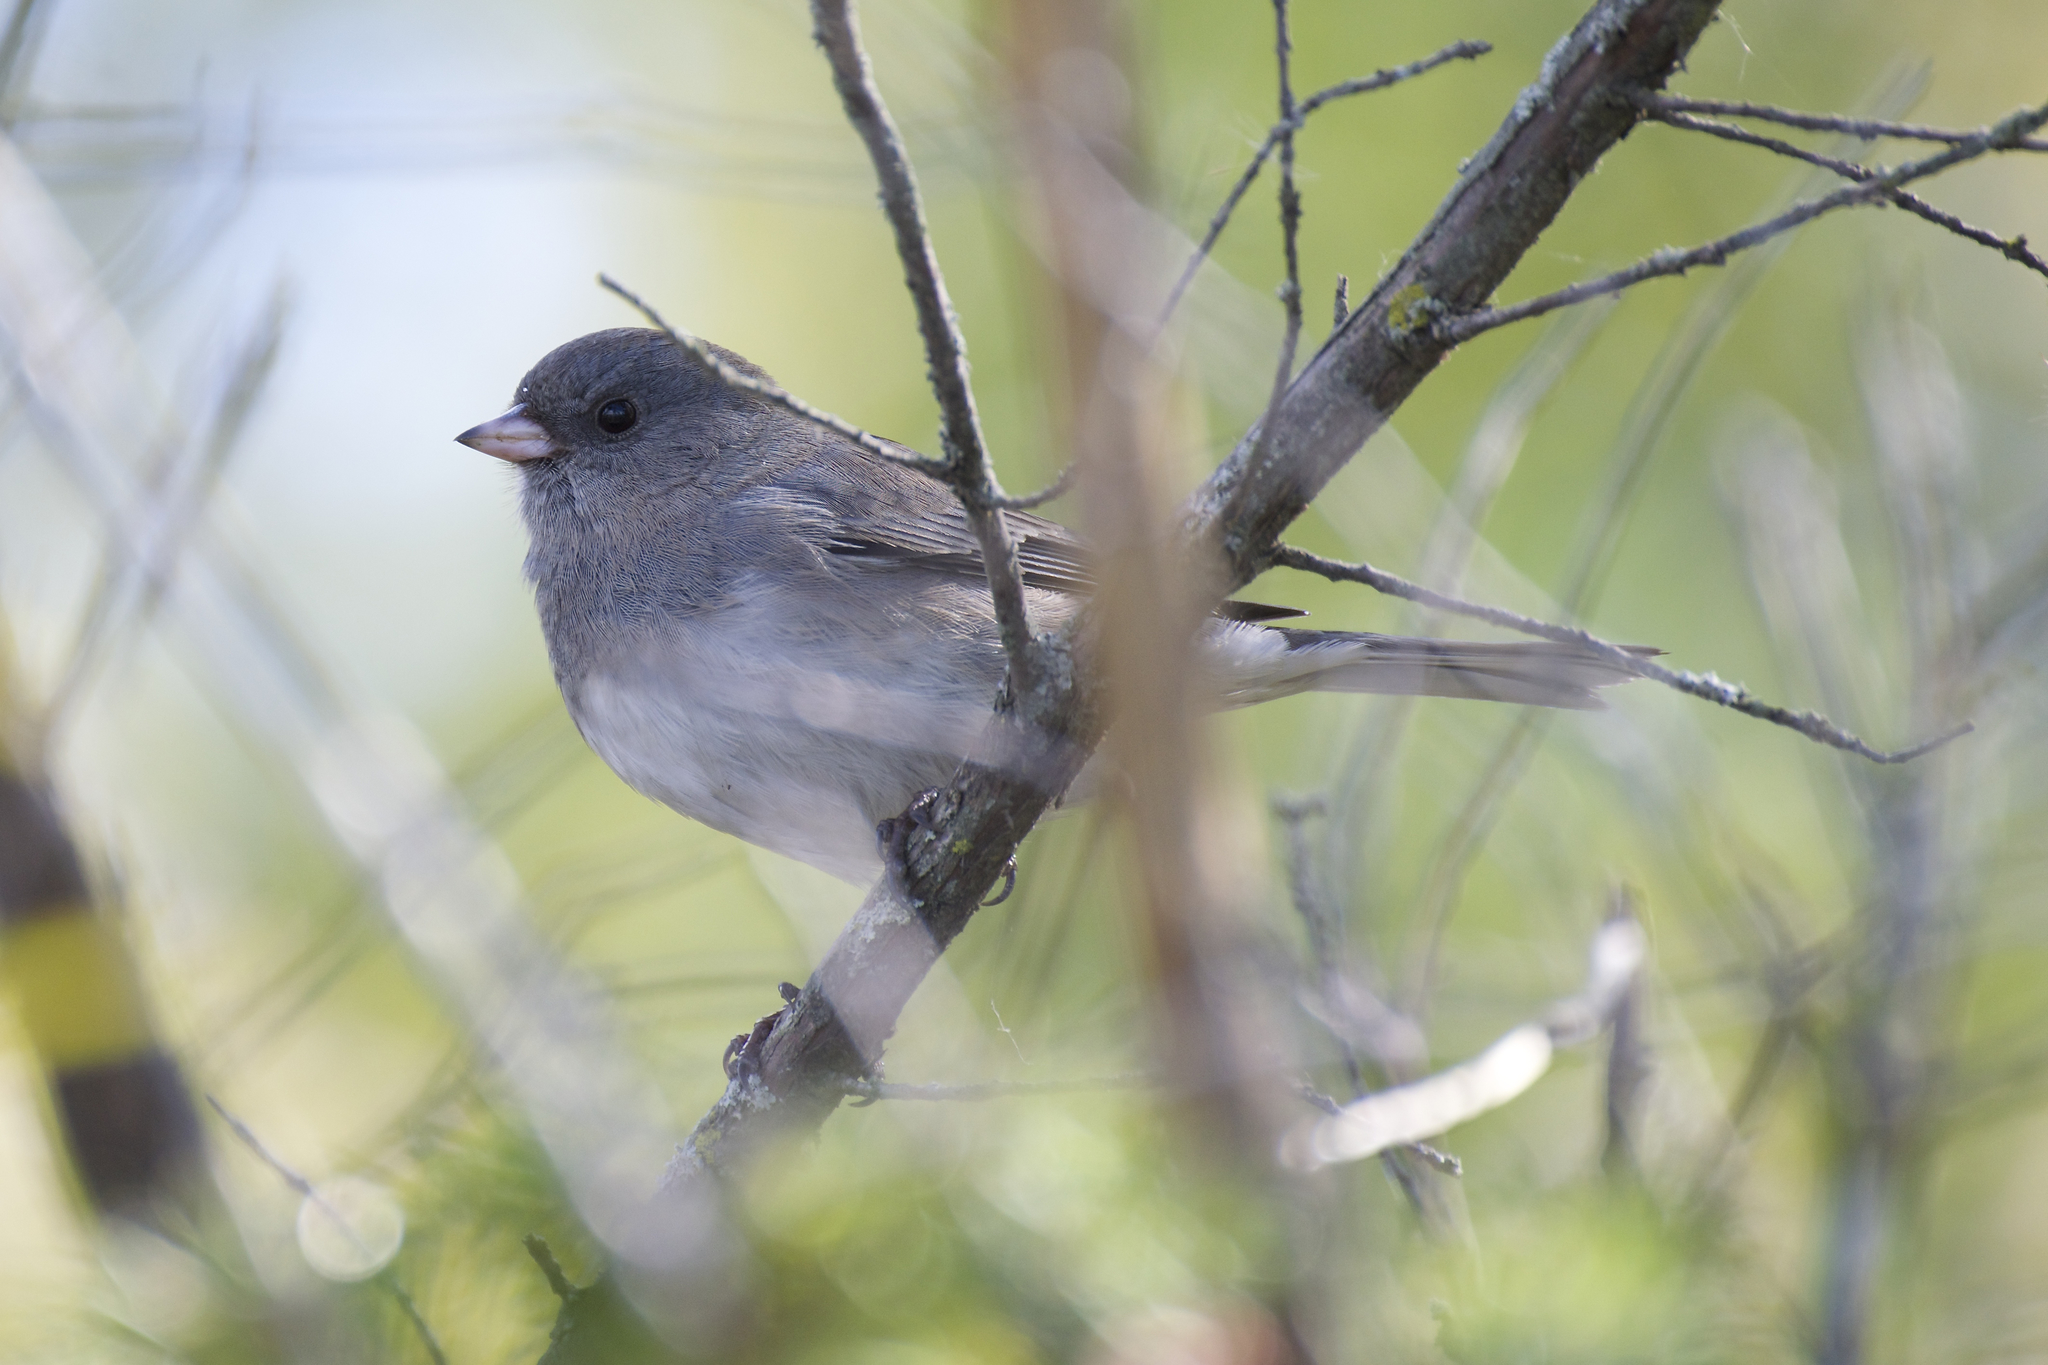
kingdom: Animalia
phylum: Chordata
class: Aves
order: Passeriformes
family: Passerellidae
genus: Junco
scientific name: Junco hyemalis
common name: Dark-eyed junco
